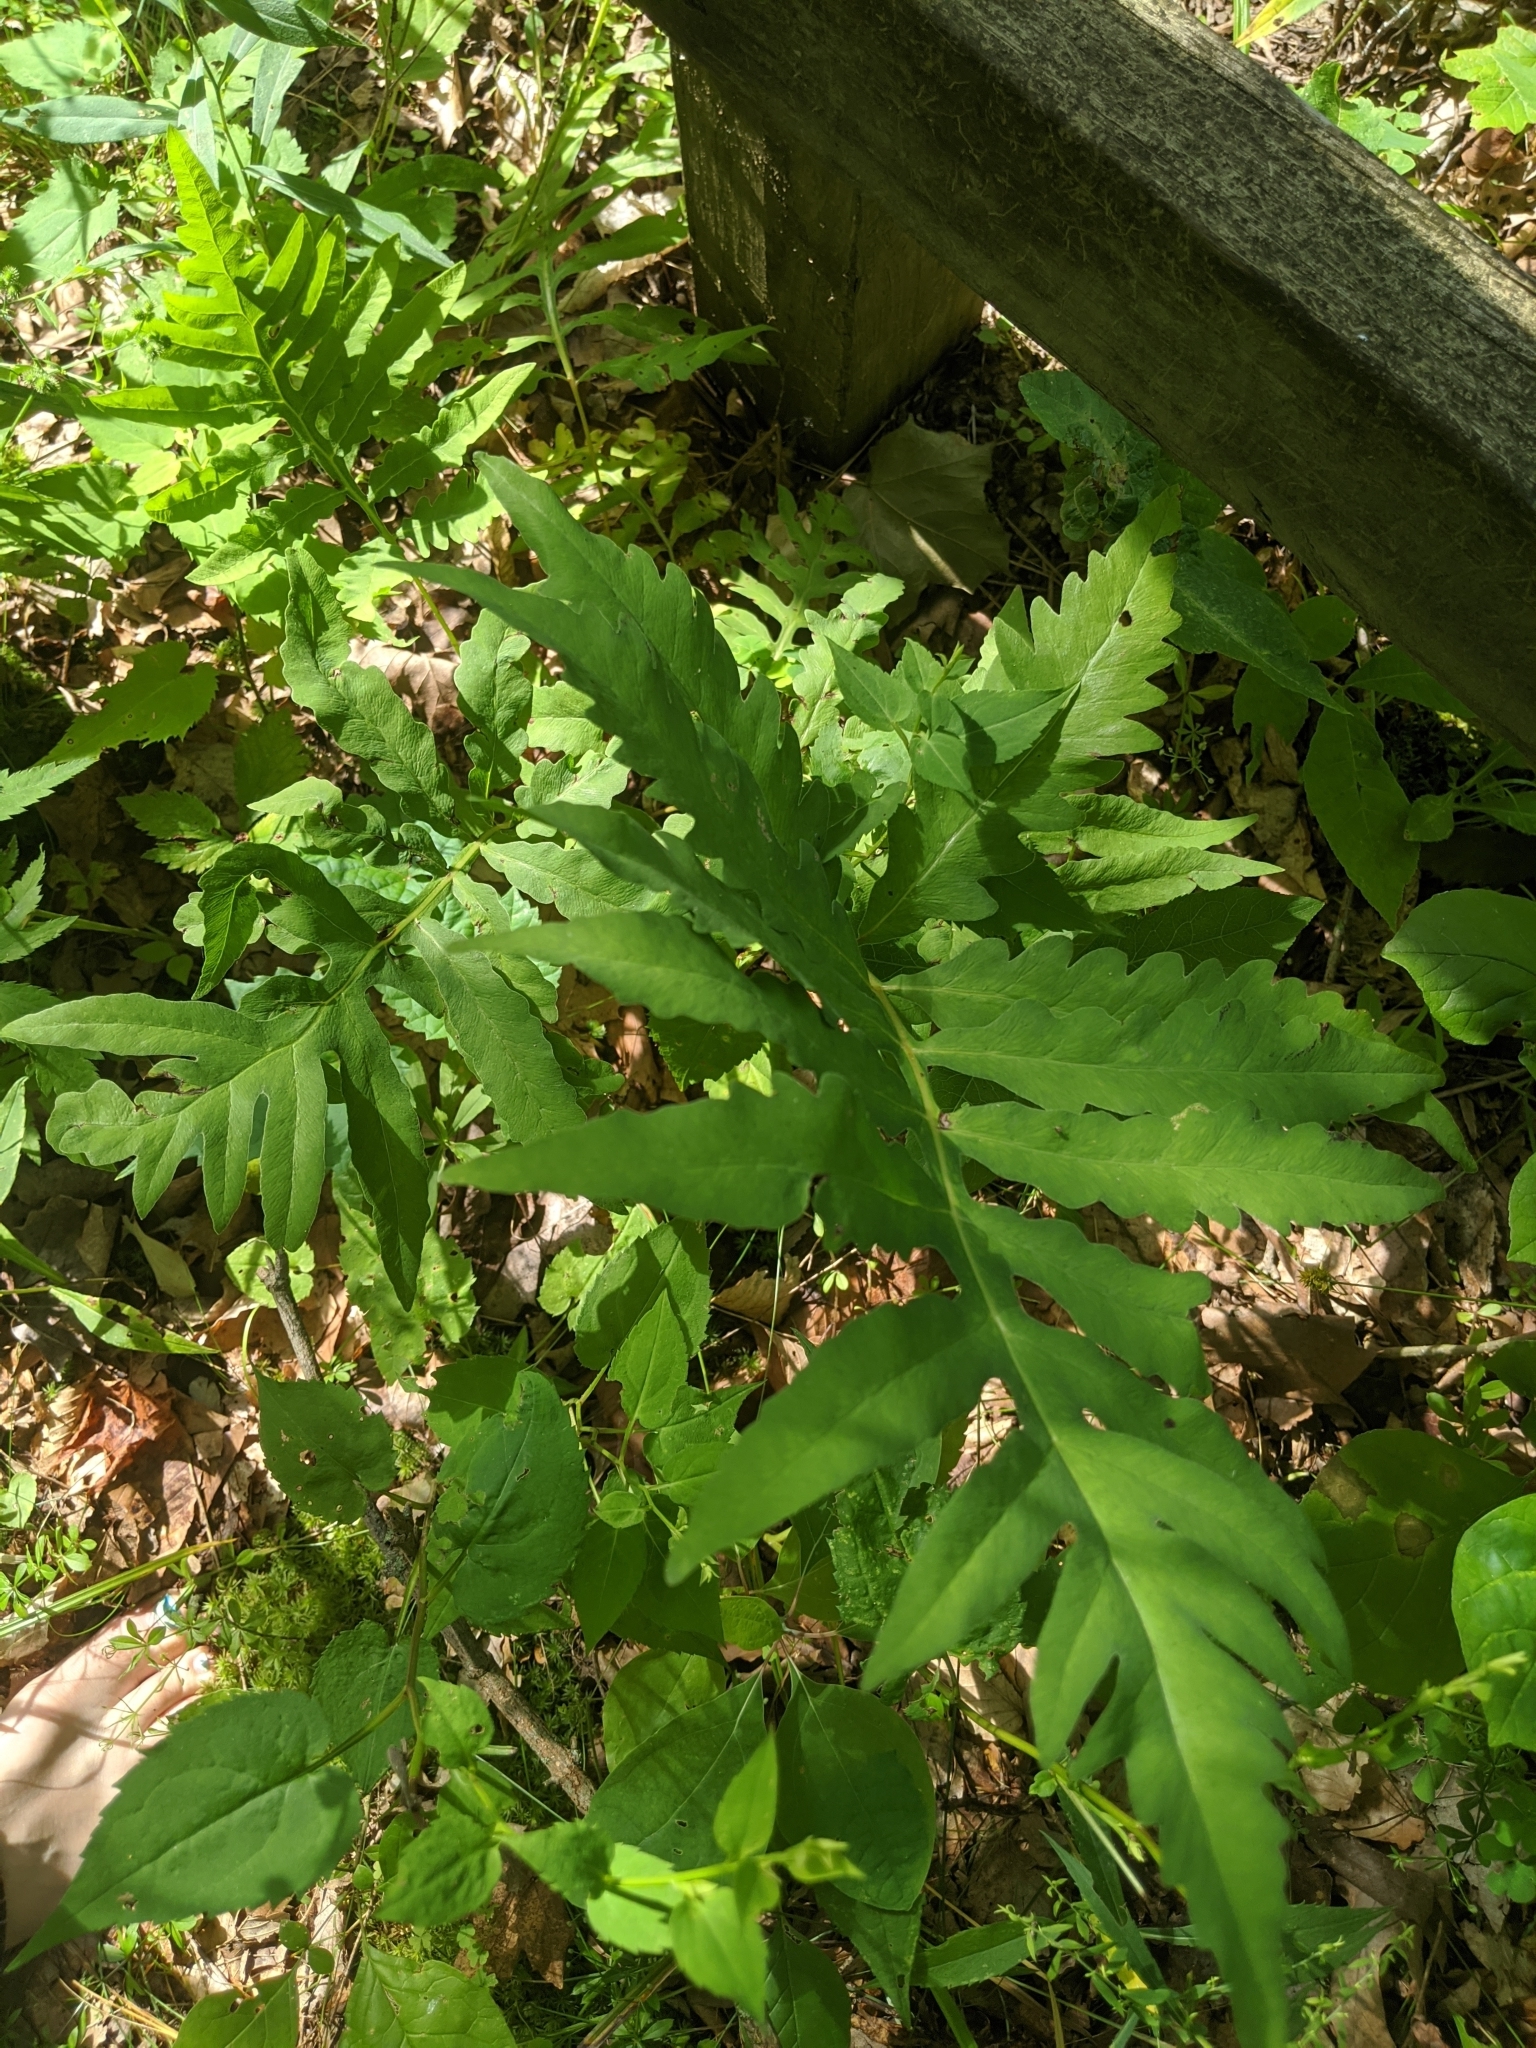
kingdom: Plantae
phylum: Tracheophyta
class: Polypodiopsida
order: Polypodiales
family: Onocleaceae
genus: Onoclea
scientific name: Onoclea sensibilis
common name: Sensitive fern
